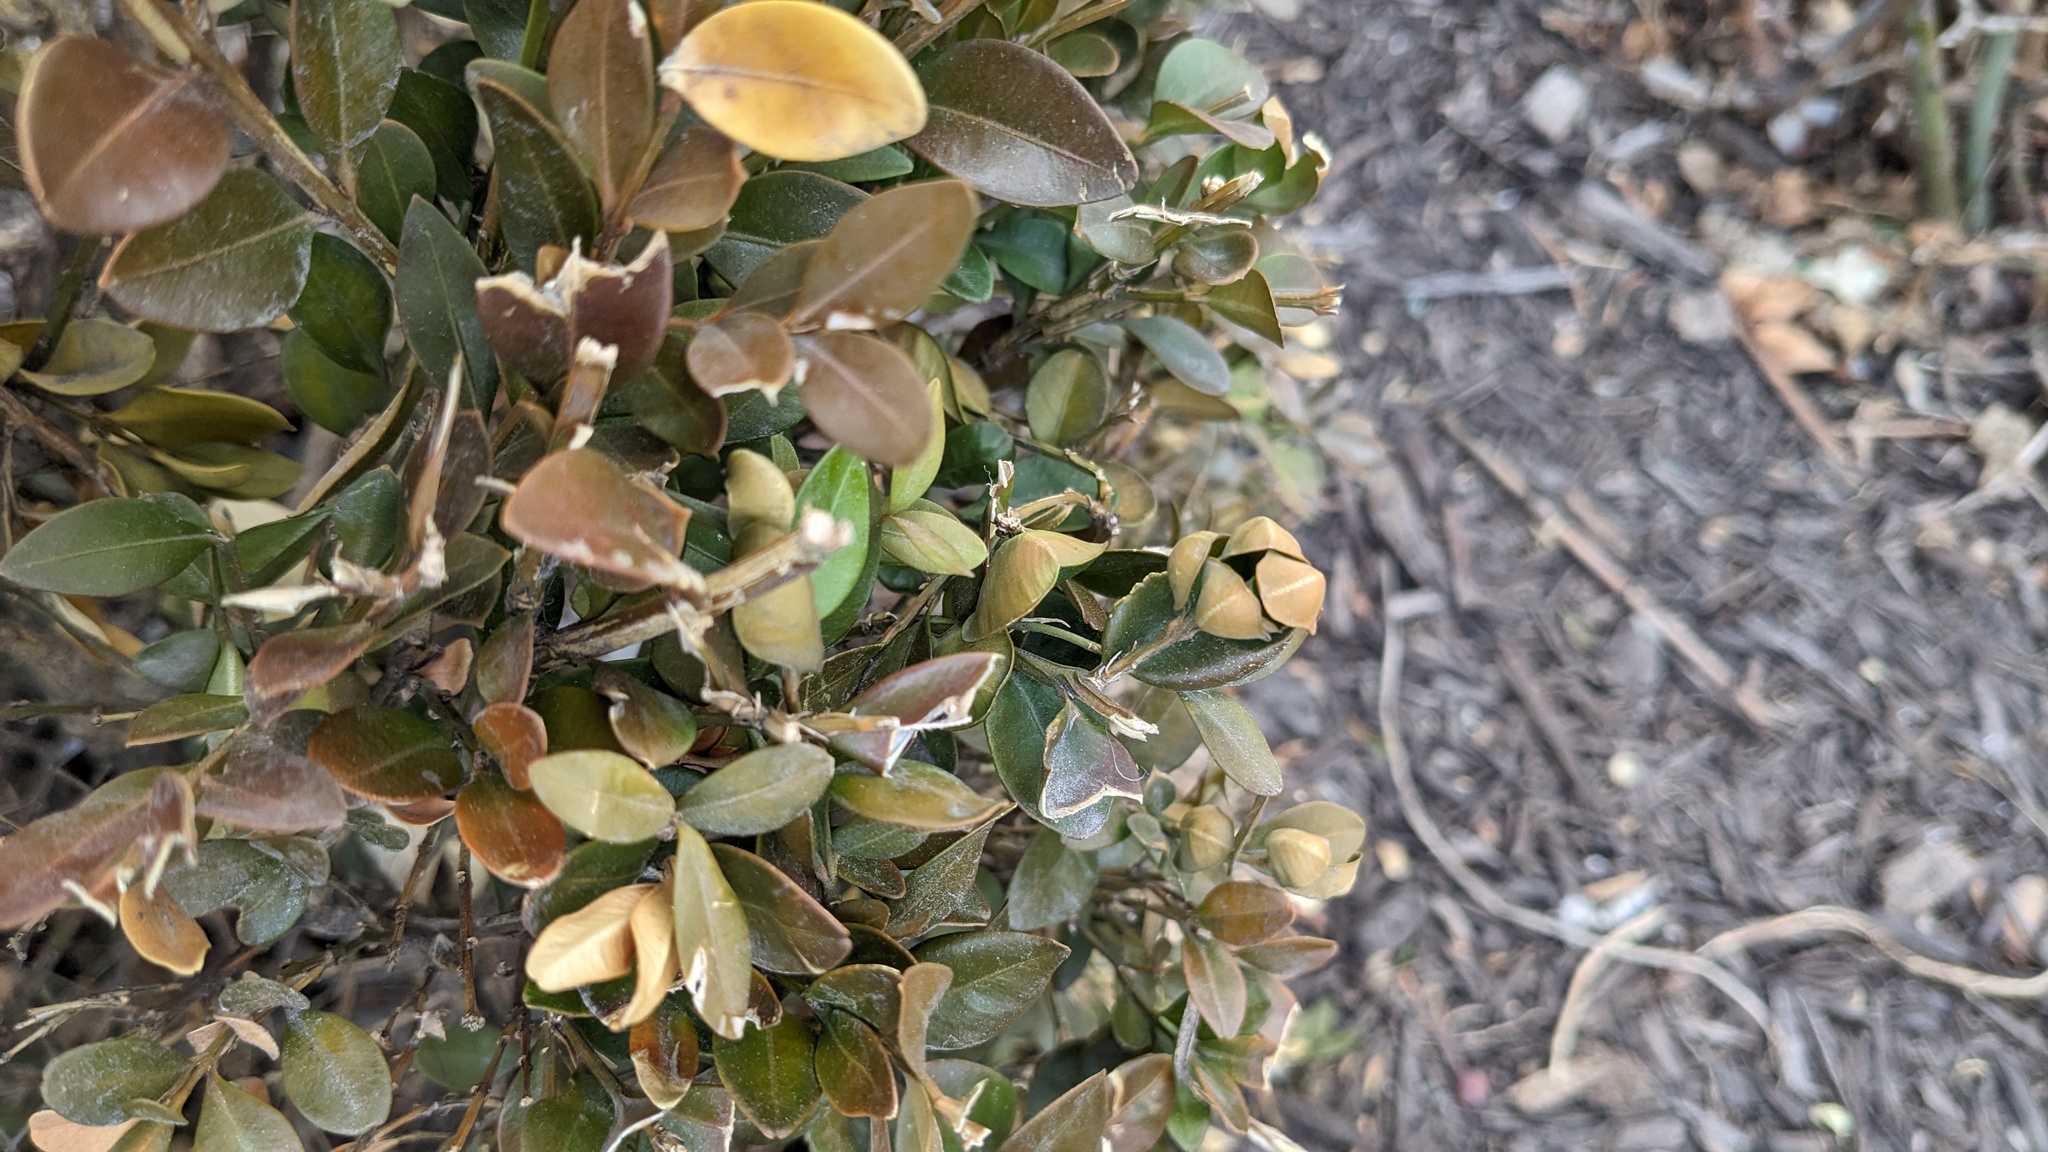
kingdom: Animalia
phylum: Arthropoda
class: Insecta
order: Hemiptera
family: Psyllidae
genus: Psylla
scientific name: Psylla buxi
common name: Boxwood psyllid
